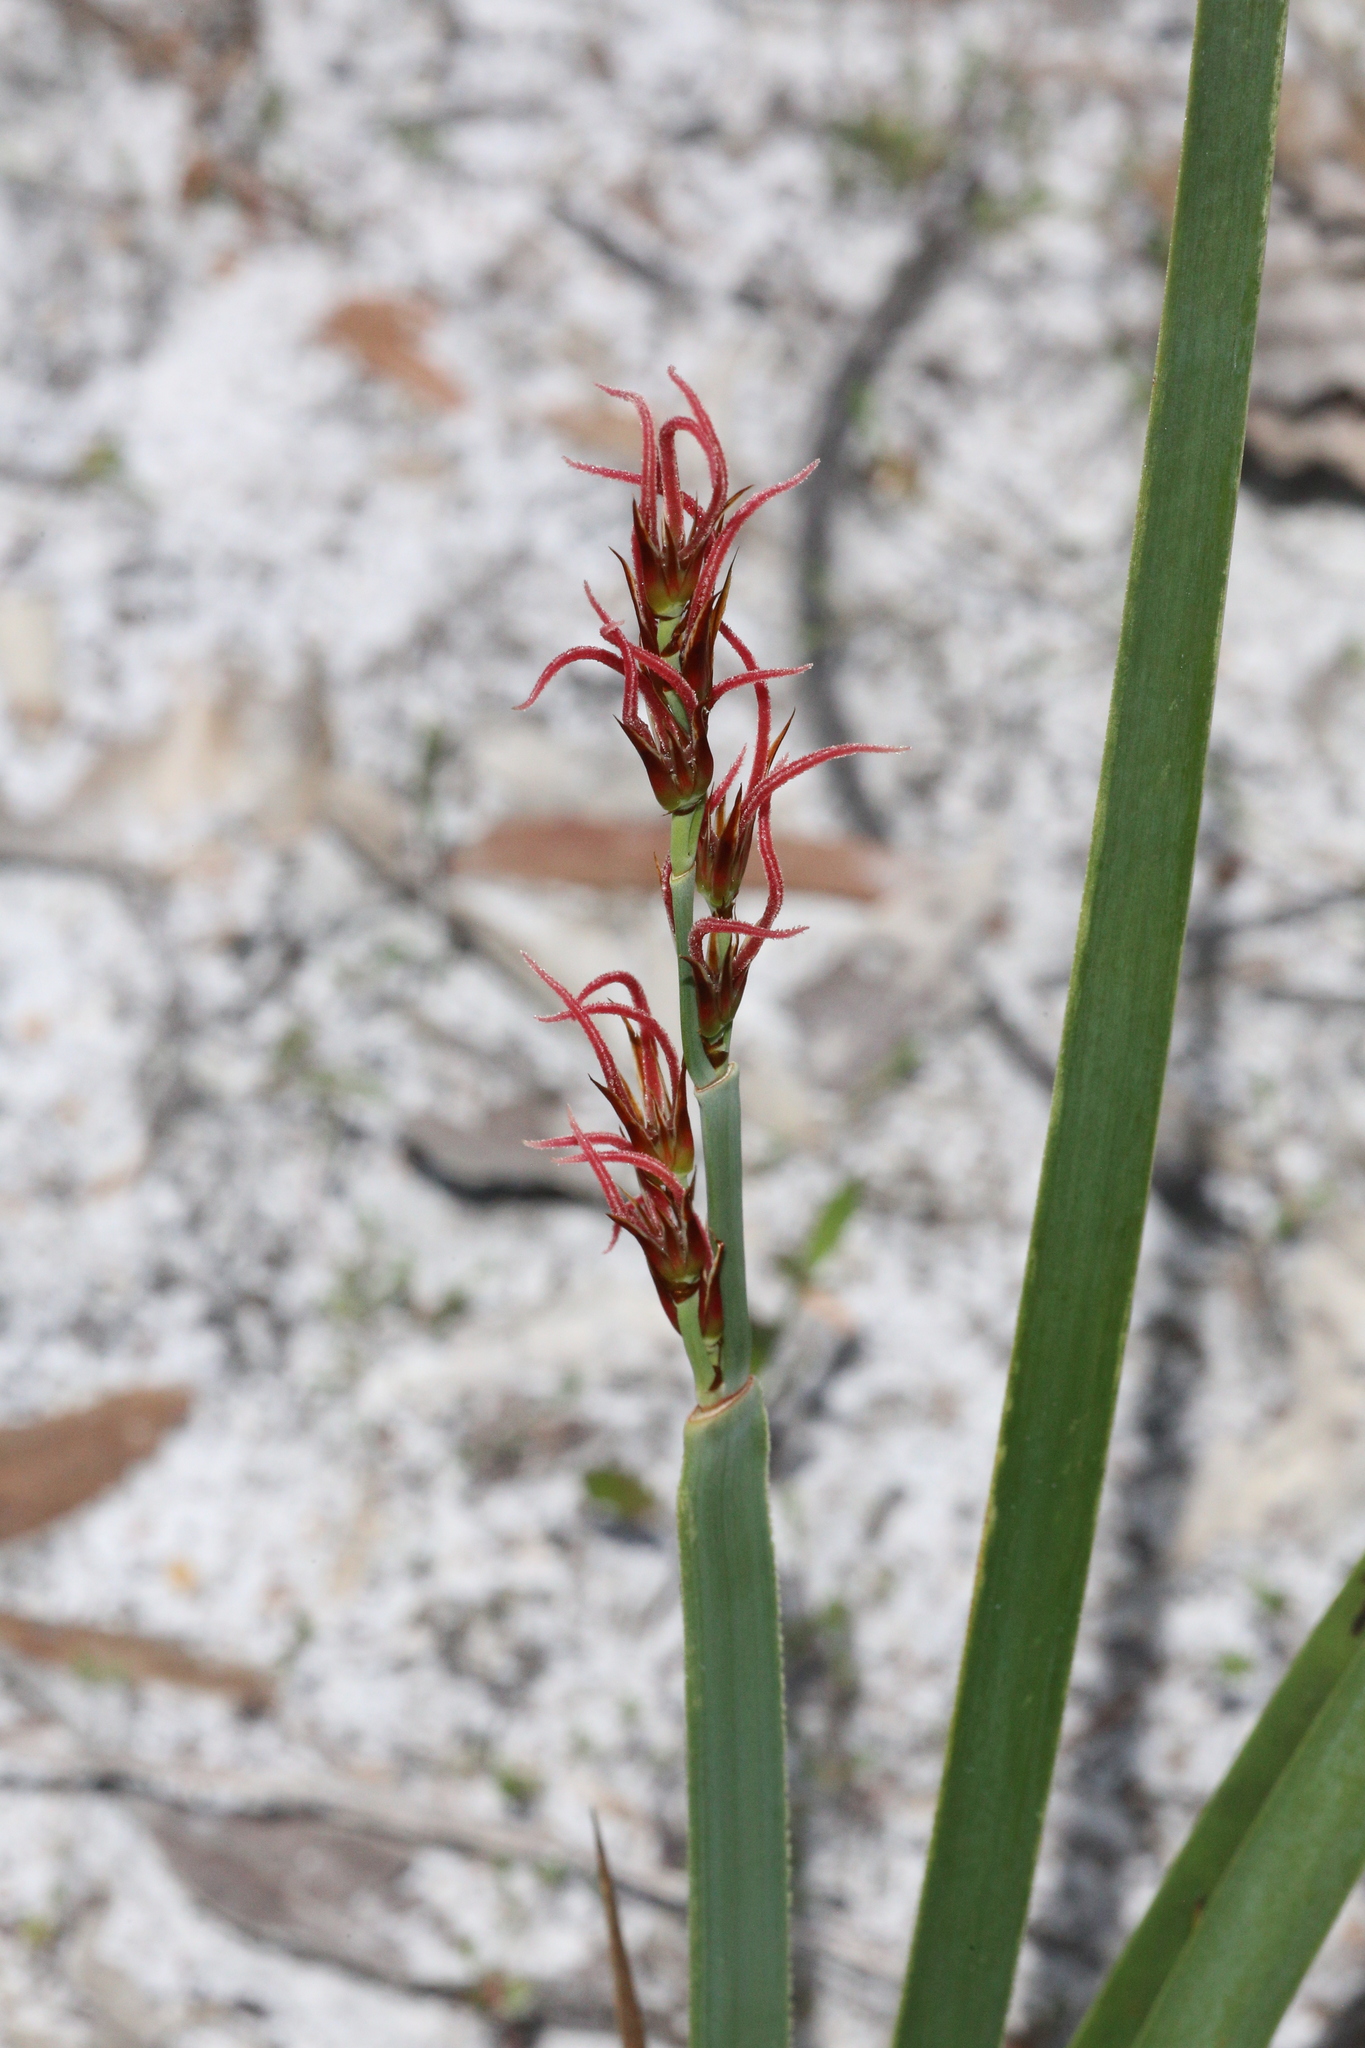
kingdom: Plantae
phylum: Tracheophyta
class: Liliopsida
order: Poales
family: Restionaceae
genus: Anarthria
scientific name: Anarthria scabra
